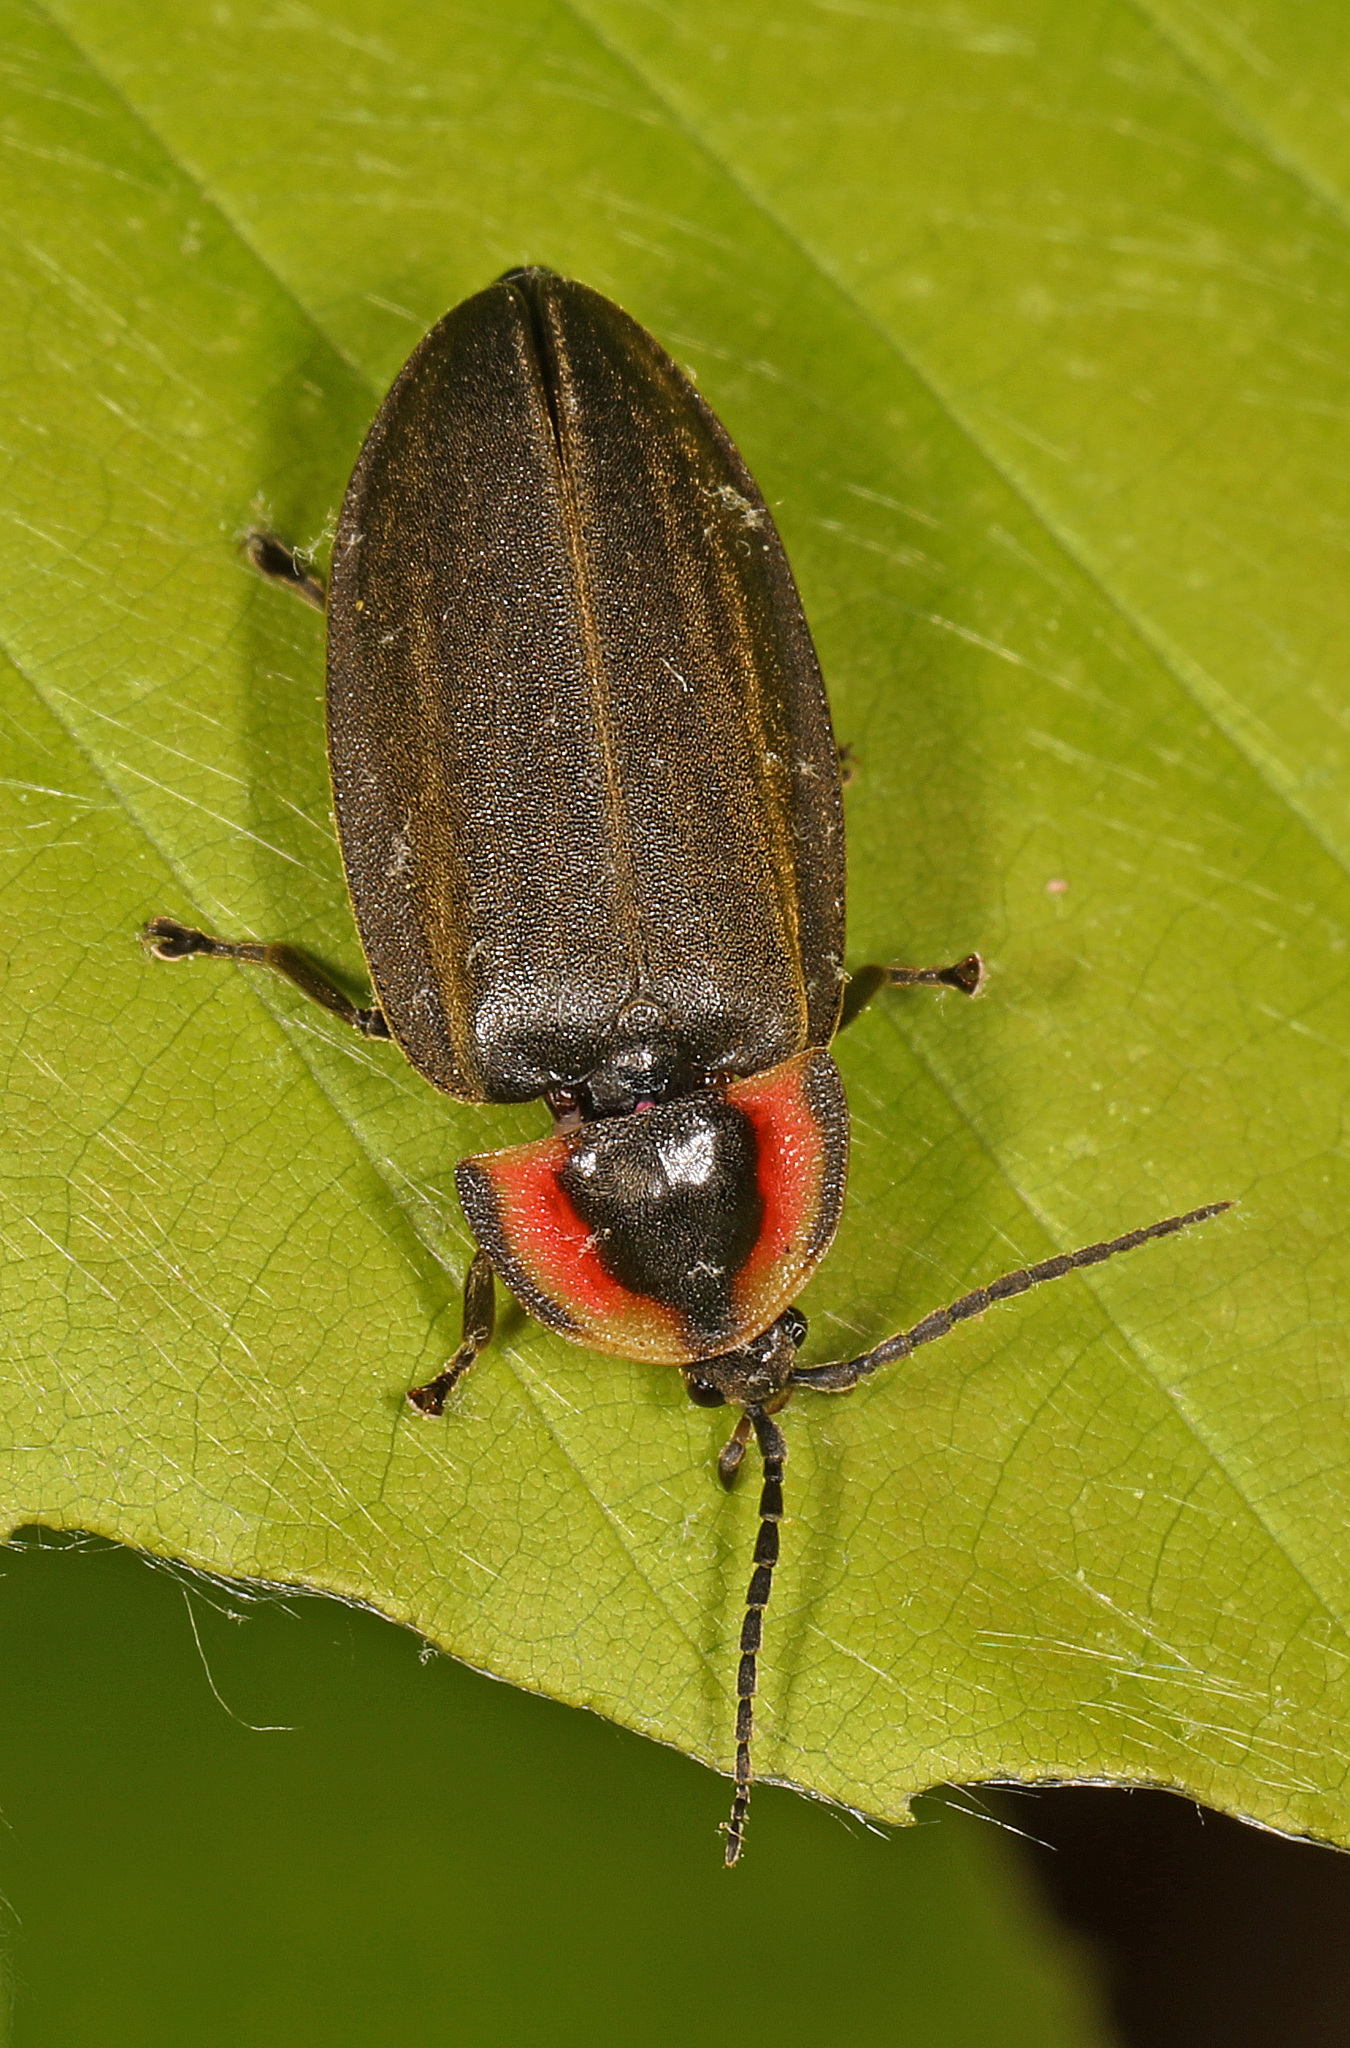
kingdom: Animalia
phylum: Arthropoda
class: Insecta
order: Coleoptera
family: Lampyridae
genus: Photinus
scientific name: Photinus corrusca
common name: Winter firefly
